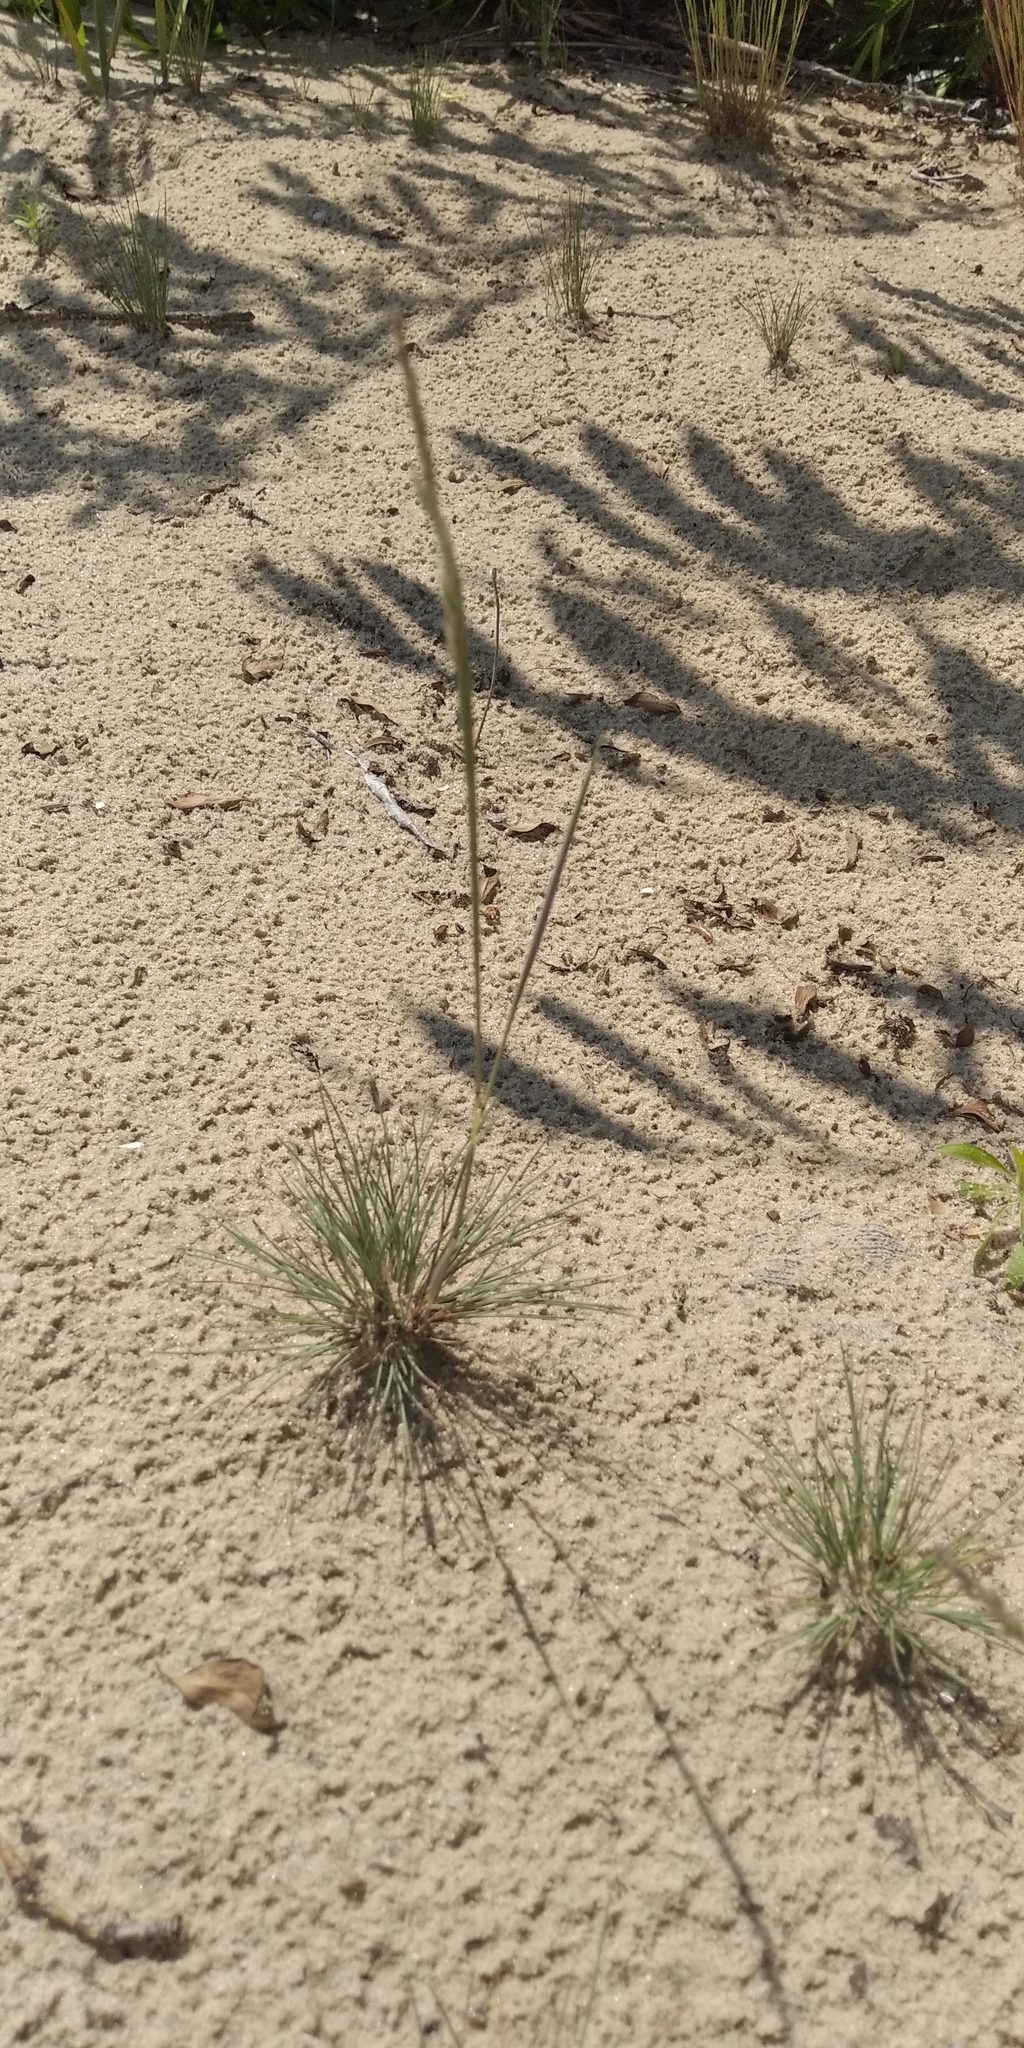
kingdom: Plantae
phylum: Tracheophyta
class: Liliopsida
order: Poales
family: Poaceae
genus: Corynephorus
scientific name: Corynephorus canescens
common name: Grey hair-grass
